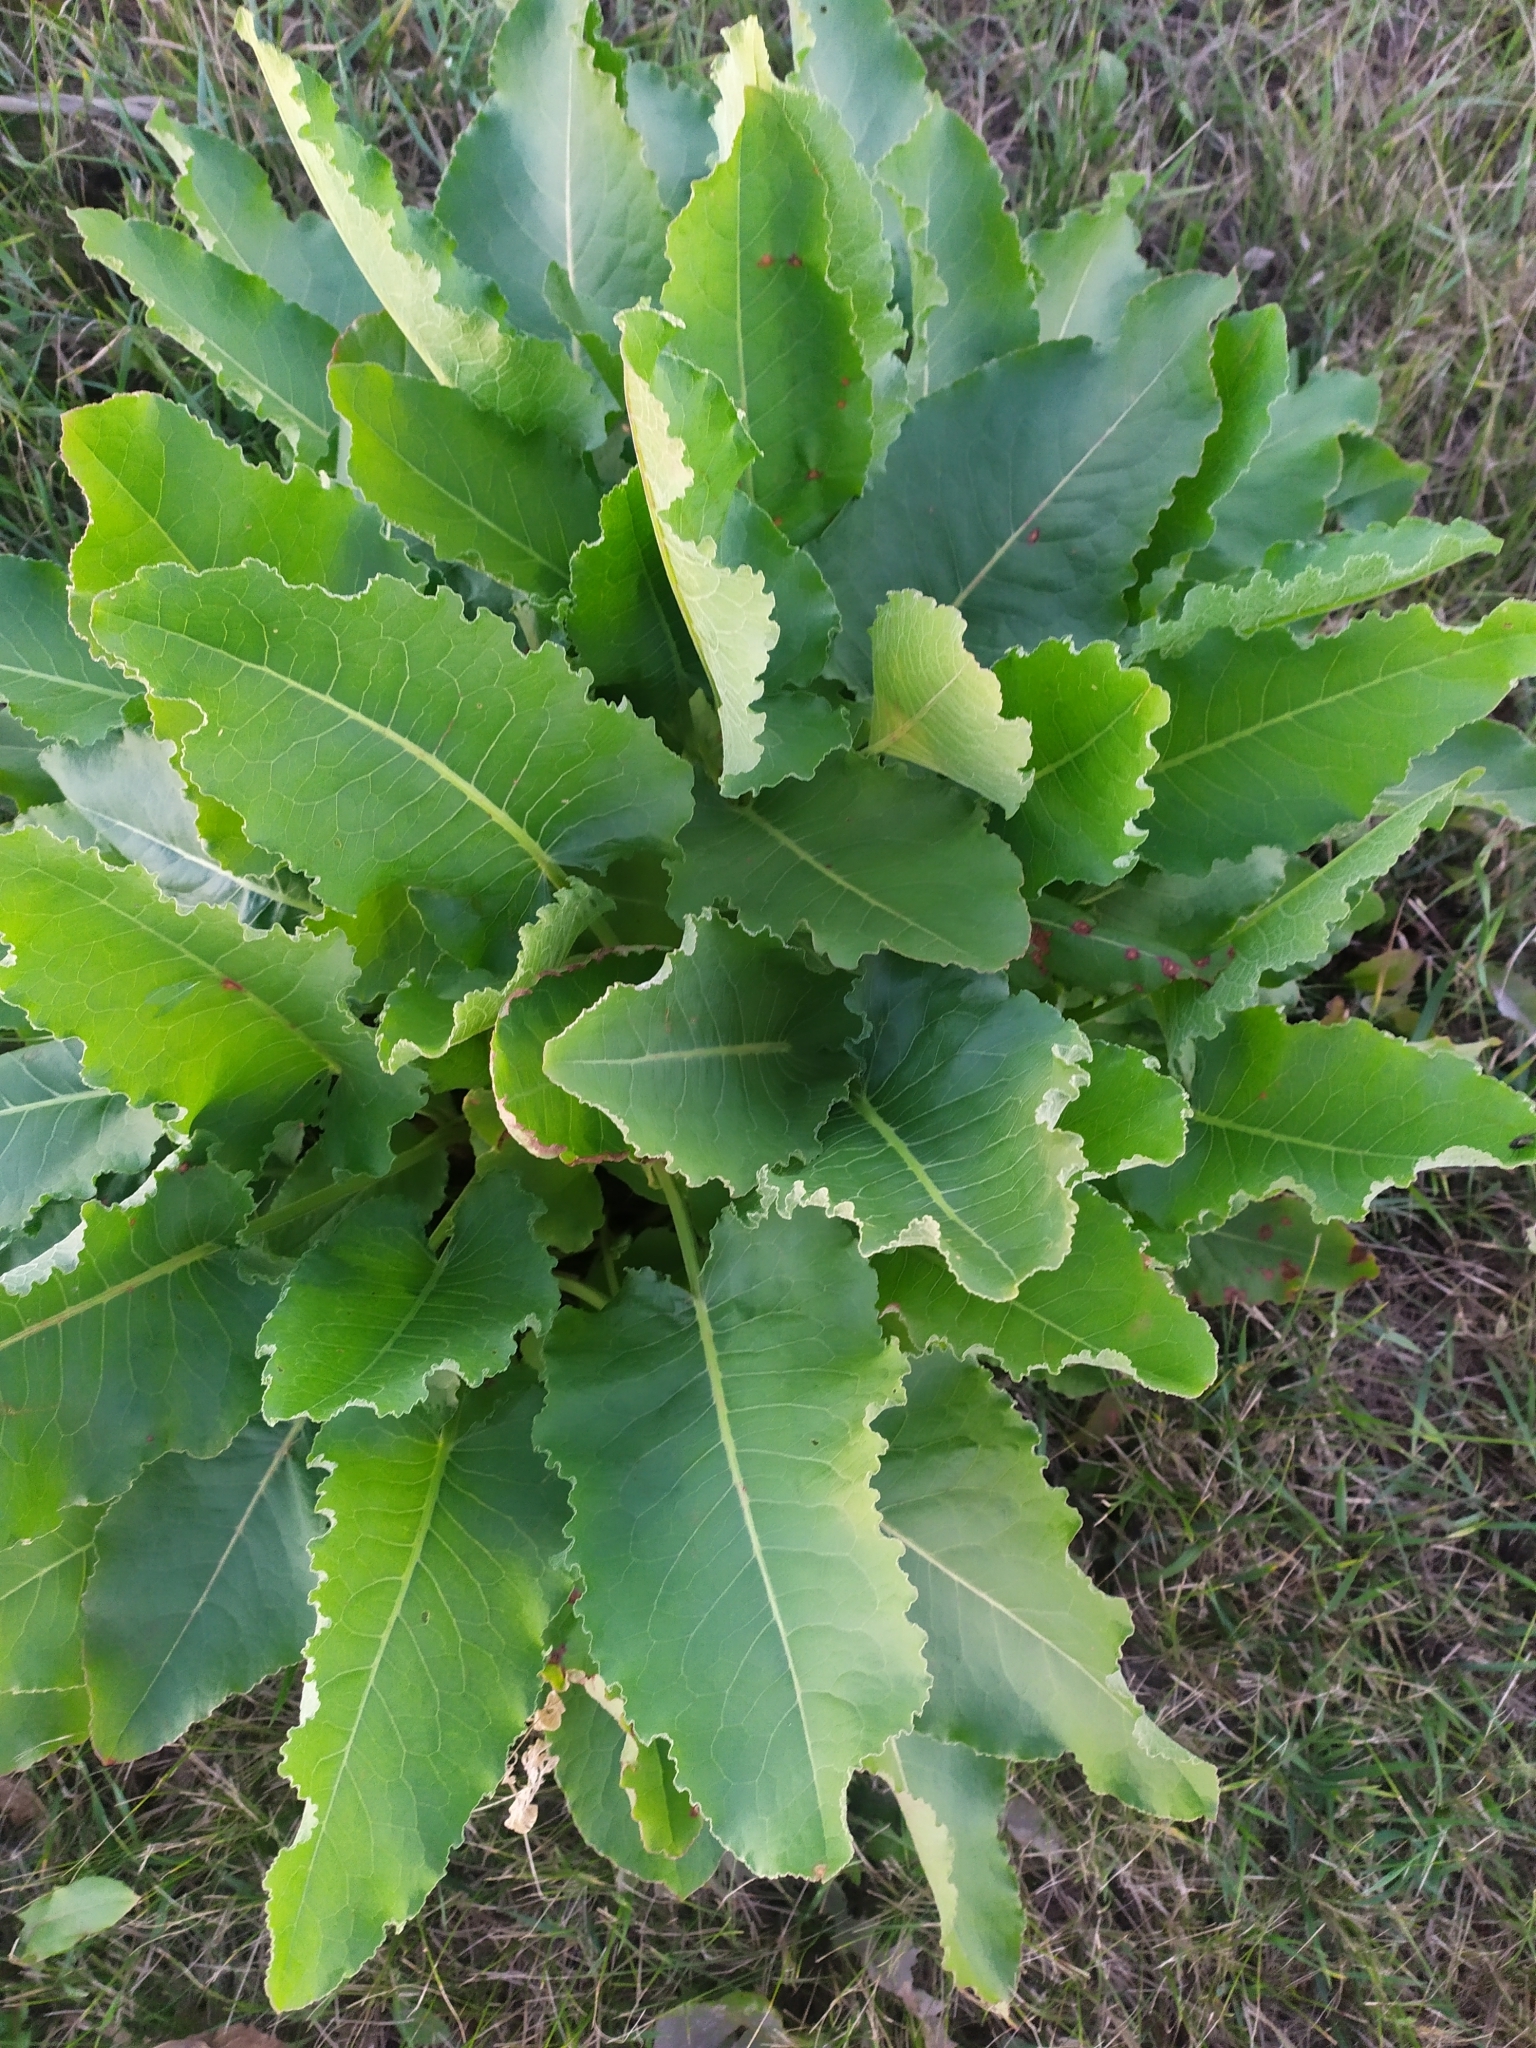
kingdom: Plantae
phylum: Tracheophyta
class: Magnoliopsida
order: Caryophyllales
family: Polygonaceae
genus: Rumex
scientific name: Rumex confertus
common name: Russian dock
